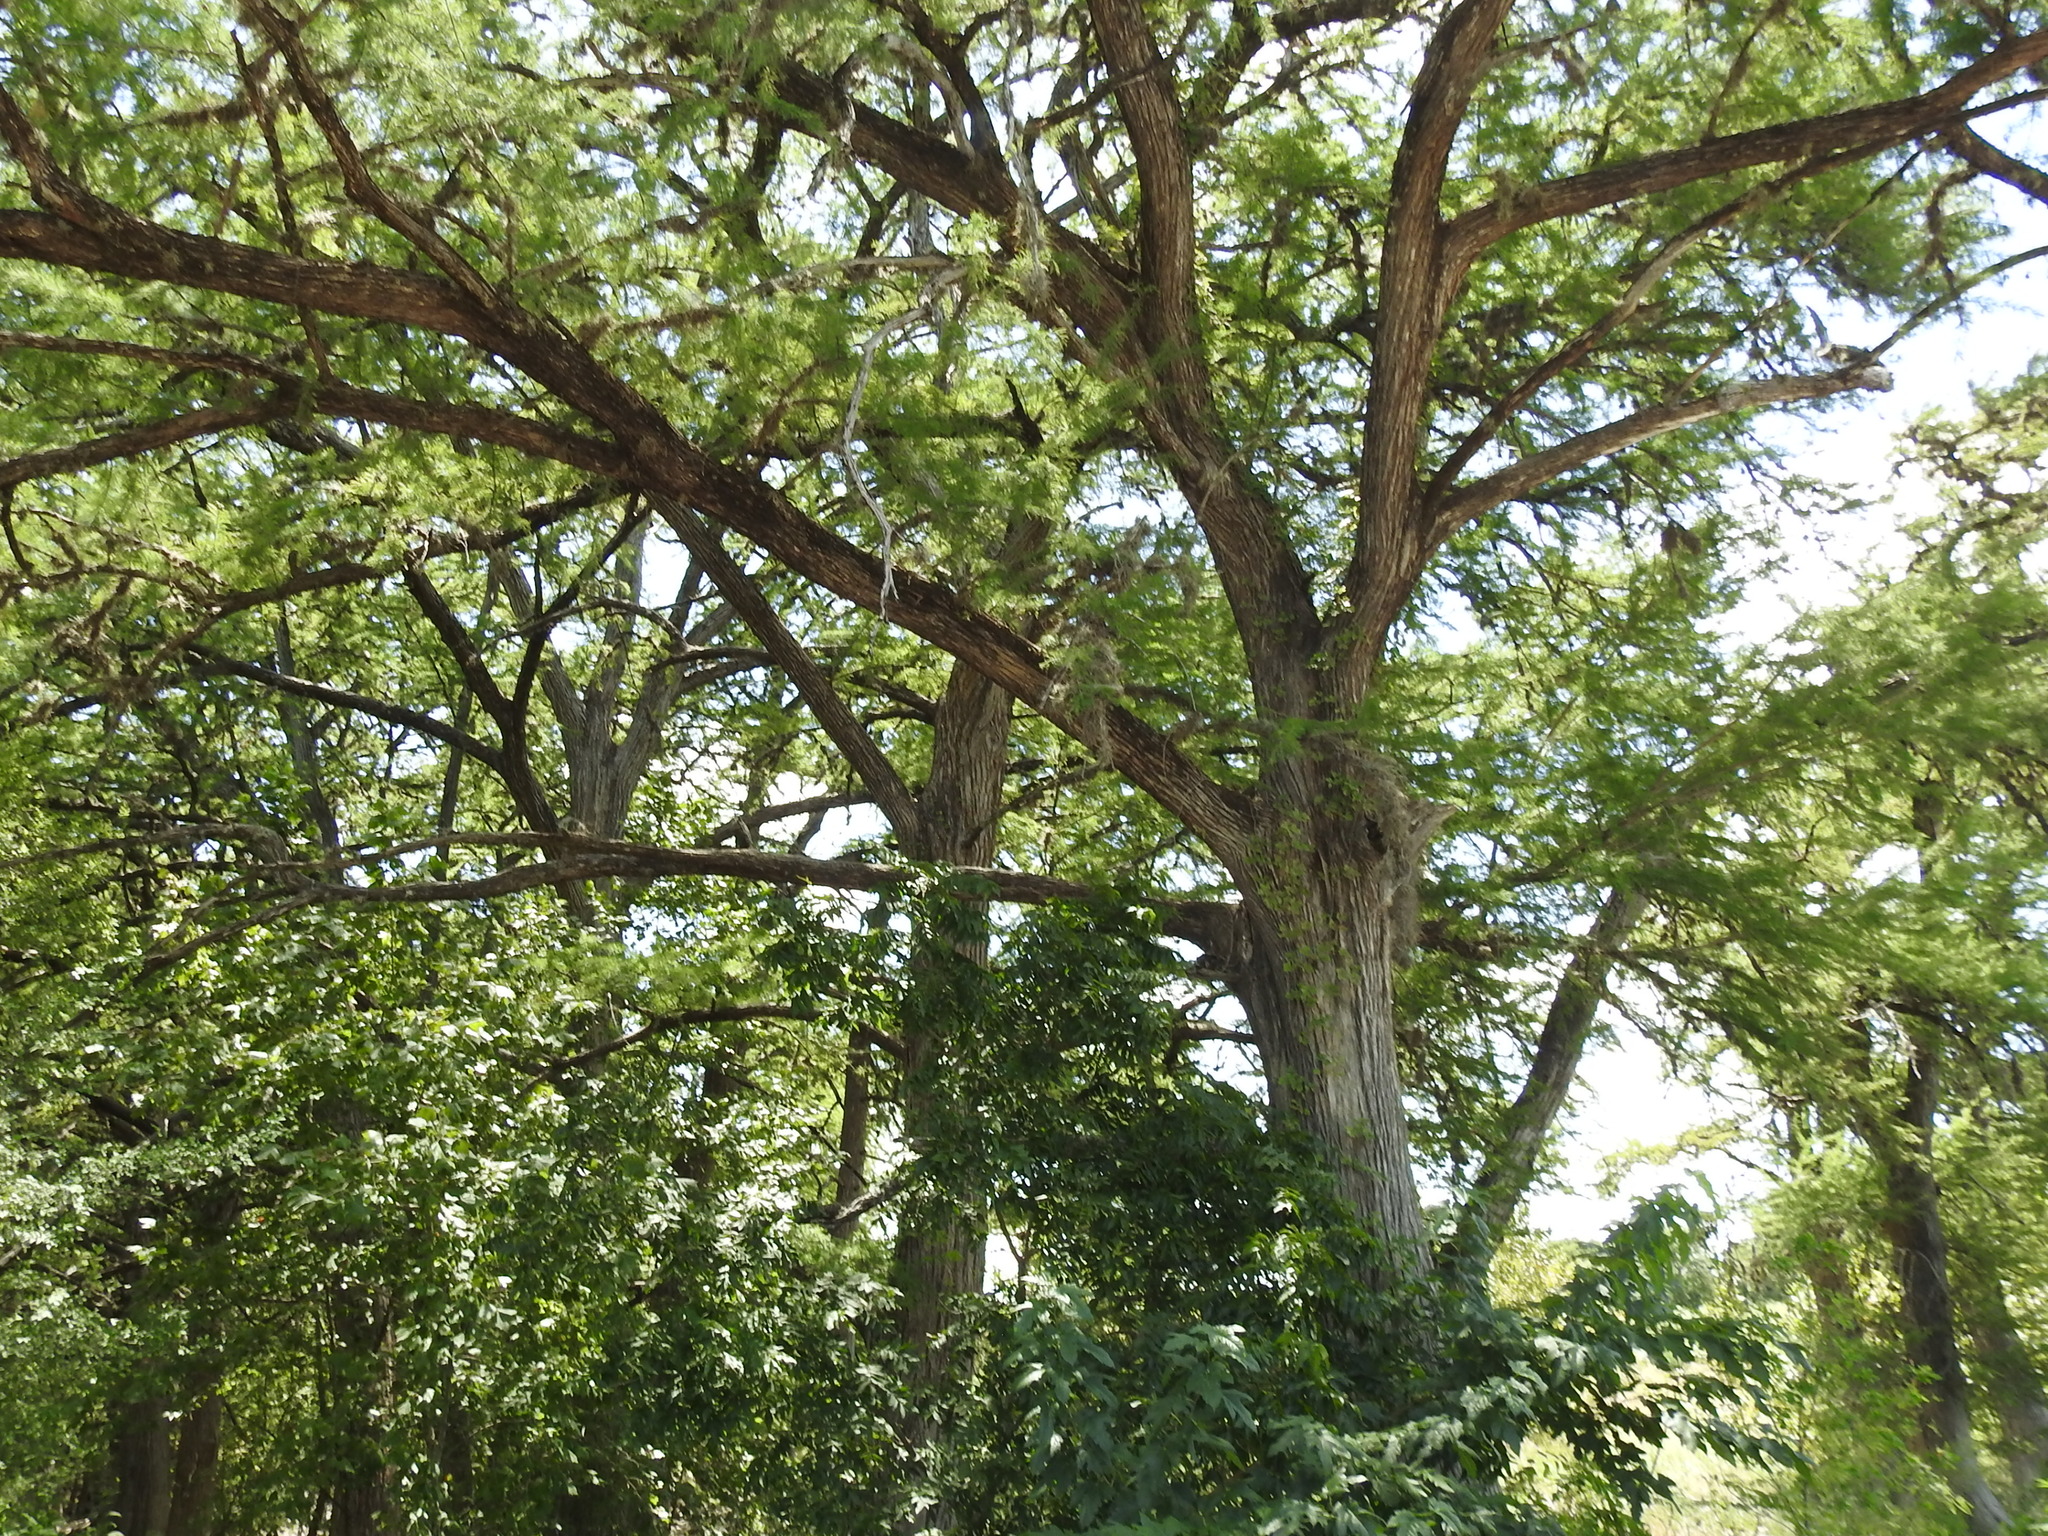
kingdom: Plantae
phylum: Tracheophyta
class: Pinopsida
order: Pinales
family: Cupressaceae
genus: Taxodium
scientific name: Taxodium distichum
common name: Bald cypress
